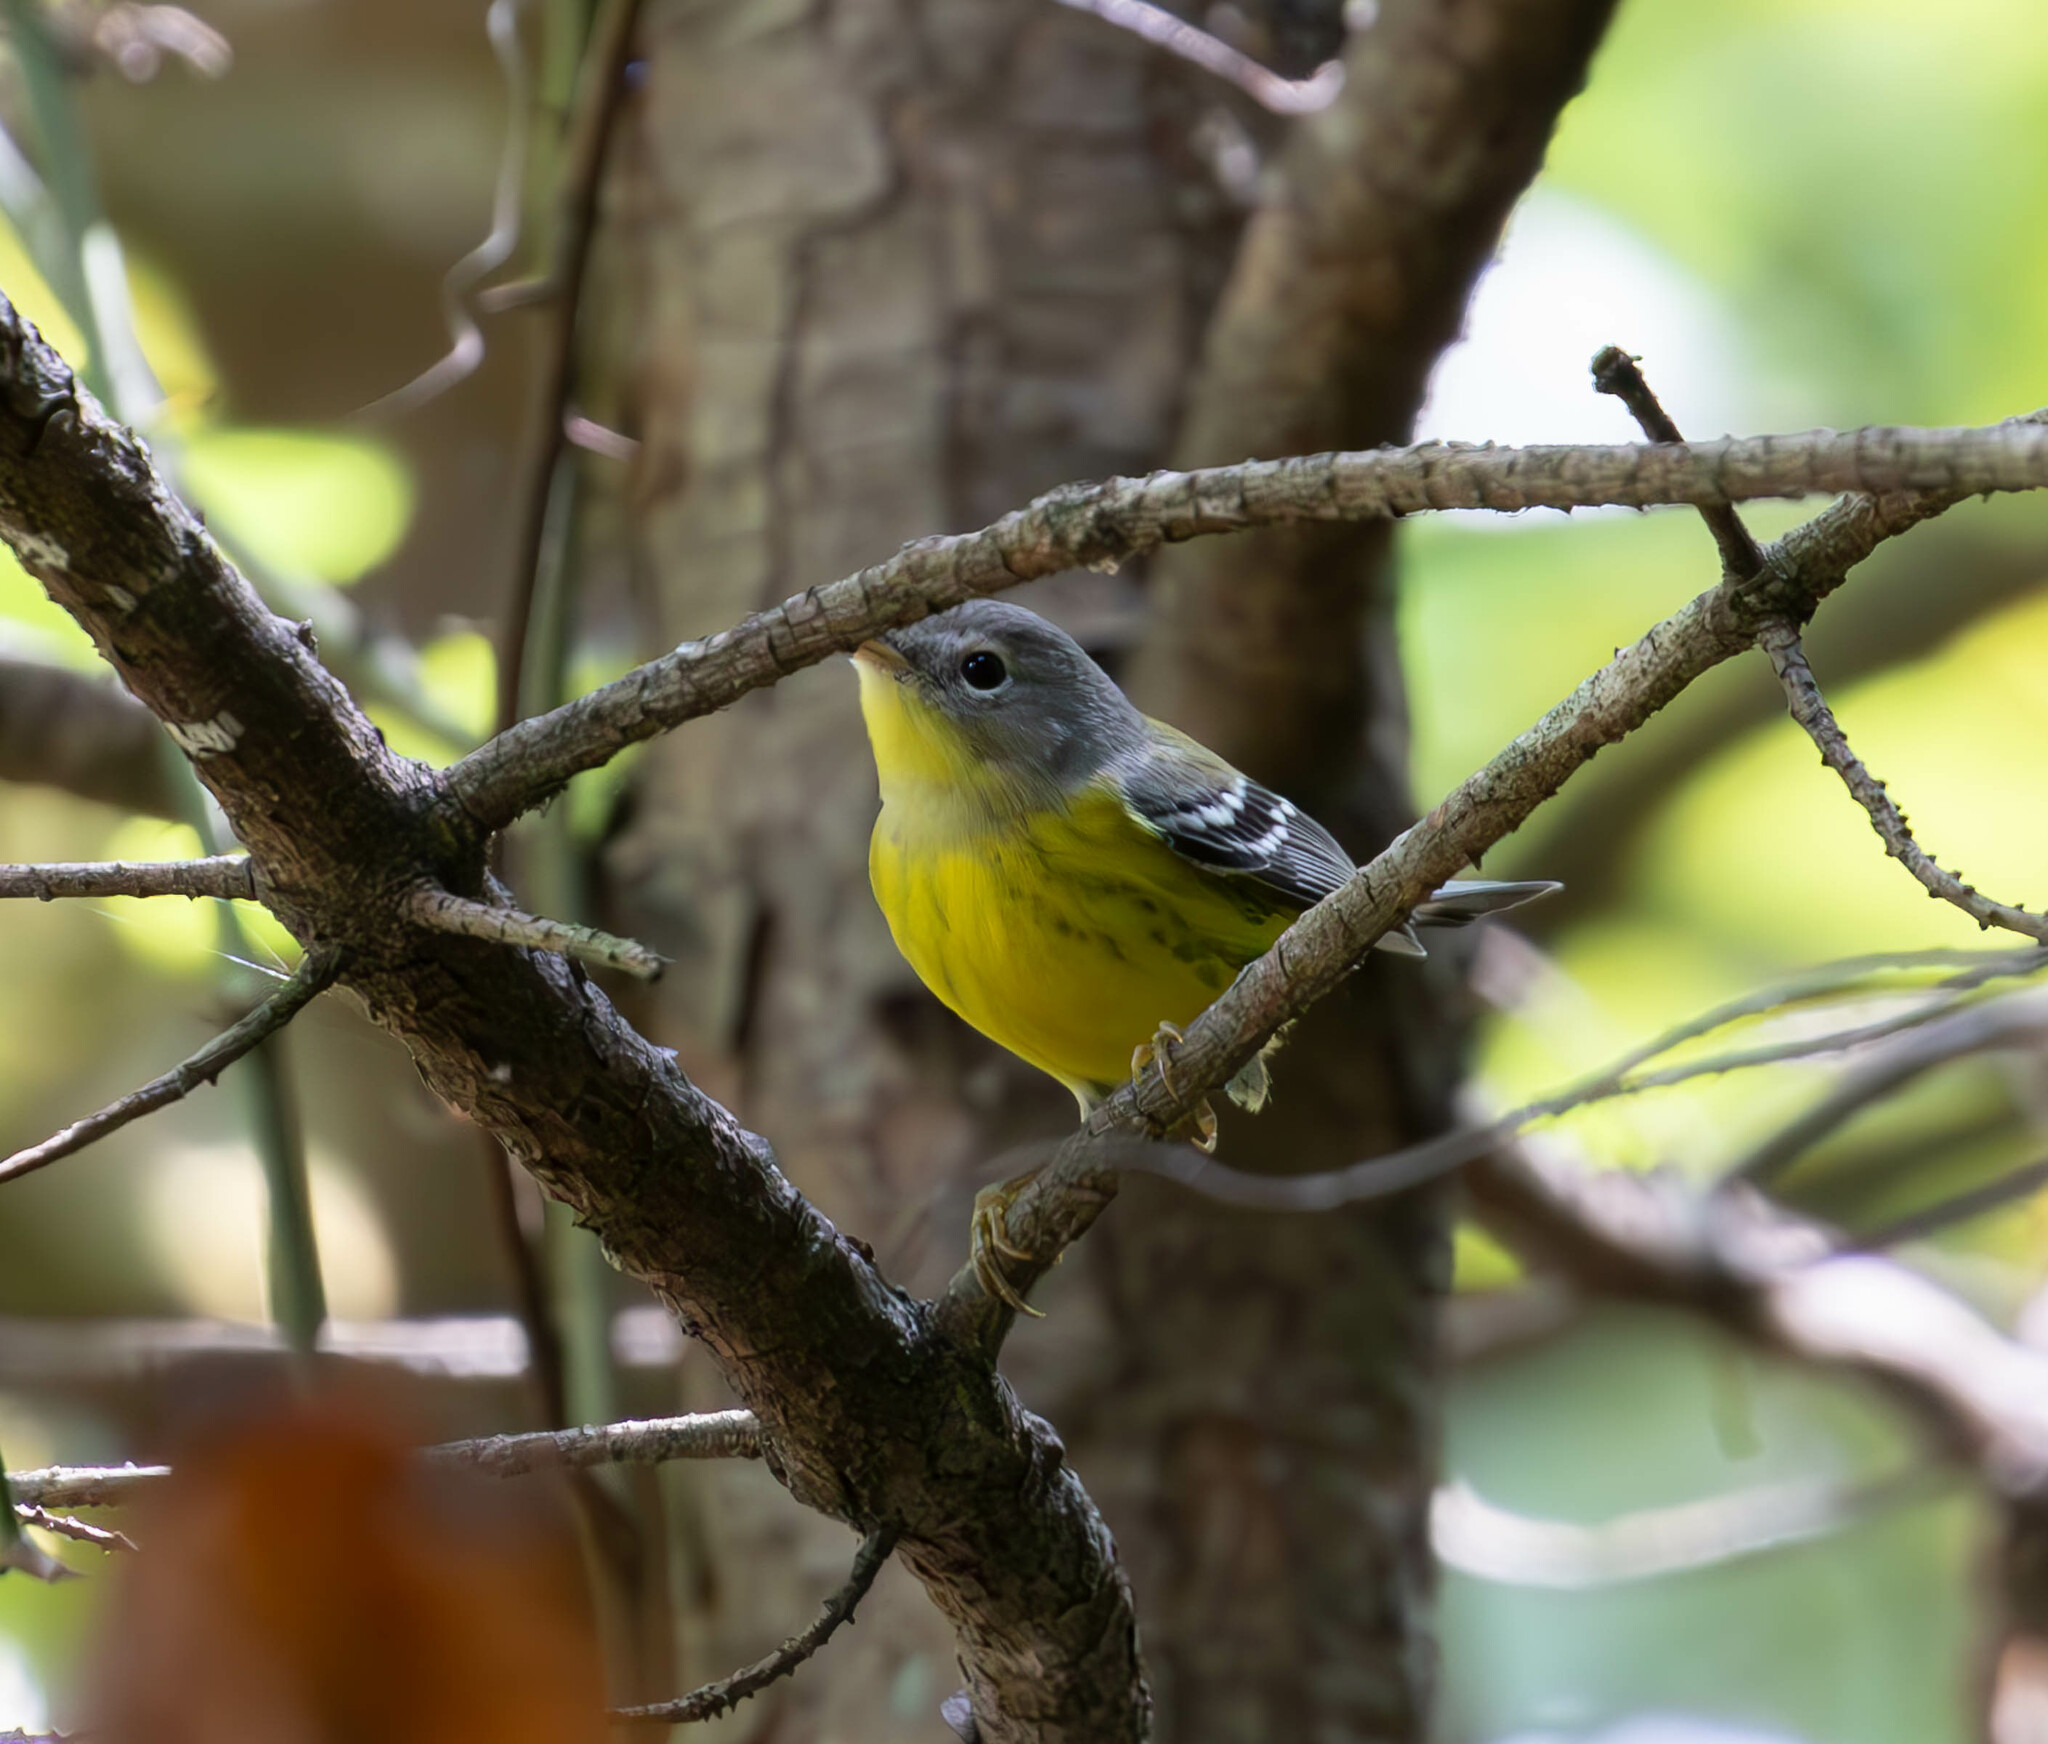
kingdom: Animalia
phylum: Chordata
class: Aves
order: Passeriformes
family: Parulidae
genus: Setophaga
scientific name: Setophaga magnolia
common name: Magnolia warbler
